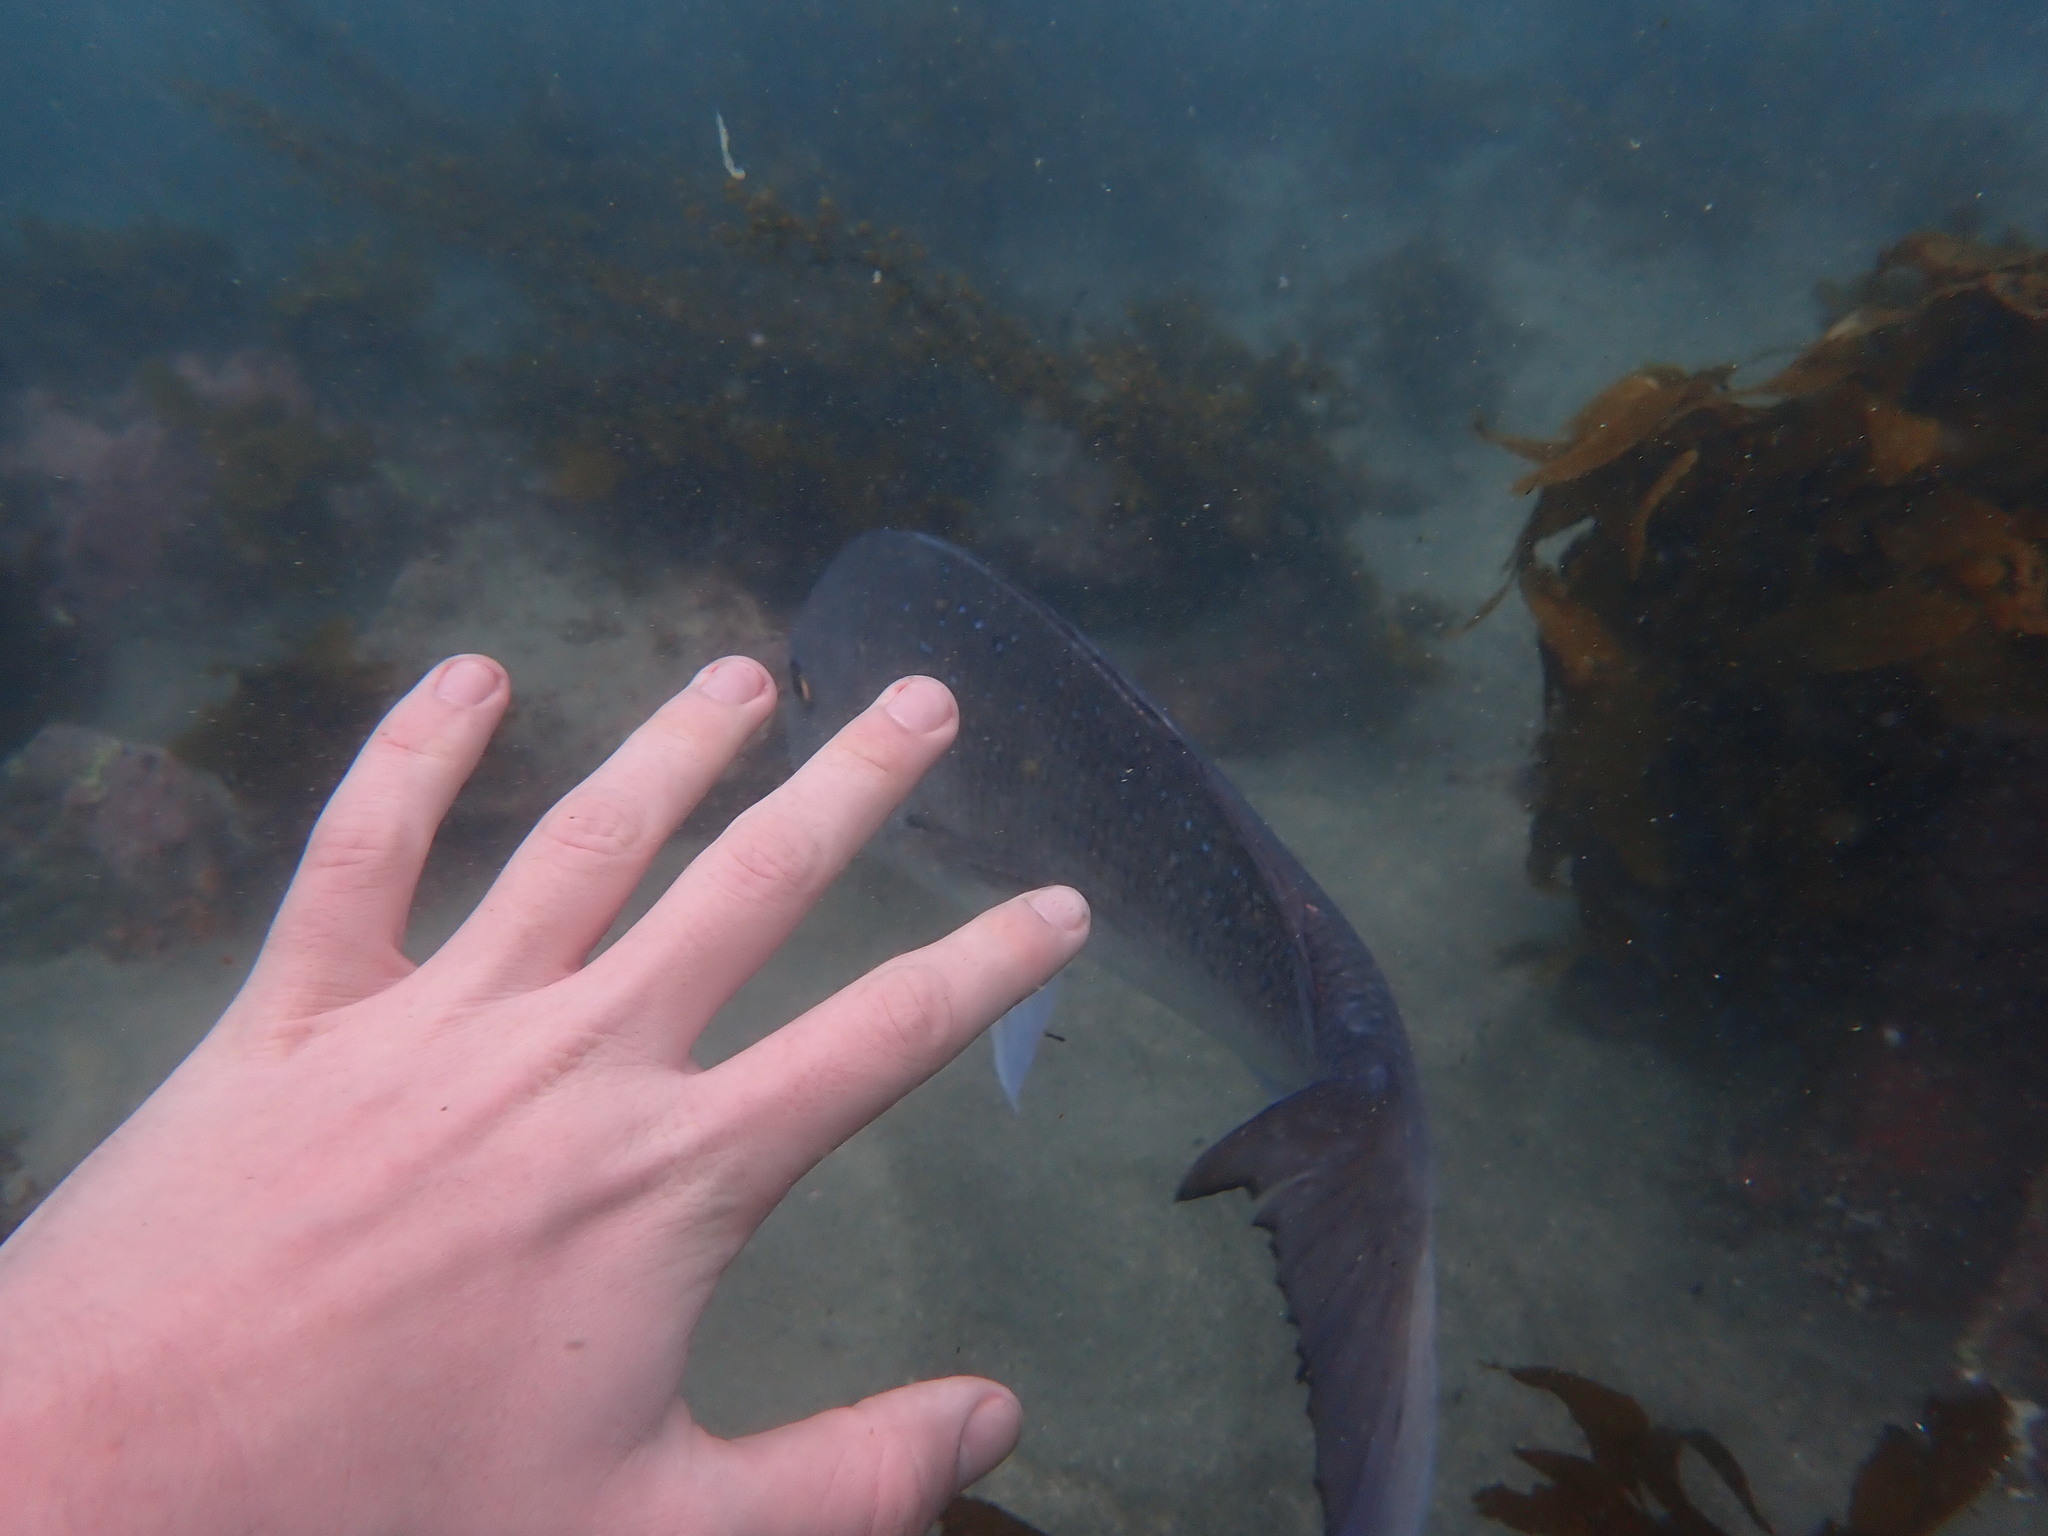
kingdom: Animalia
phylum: Chordata
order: Perciformes
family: Sparidae
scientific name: Sparidae
